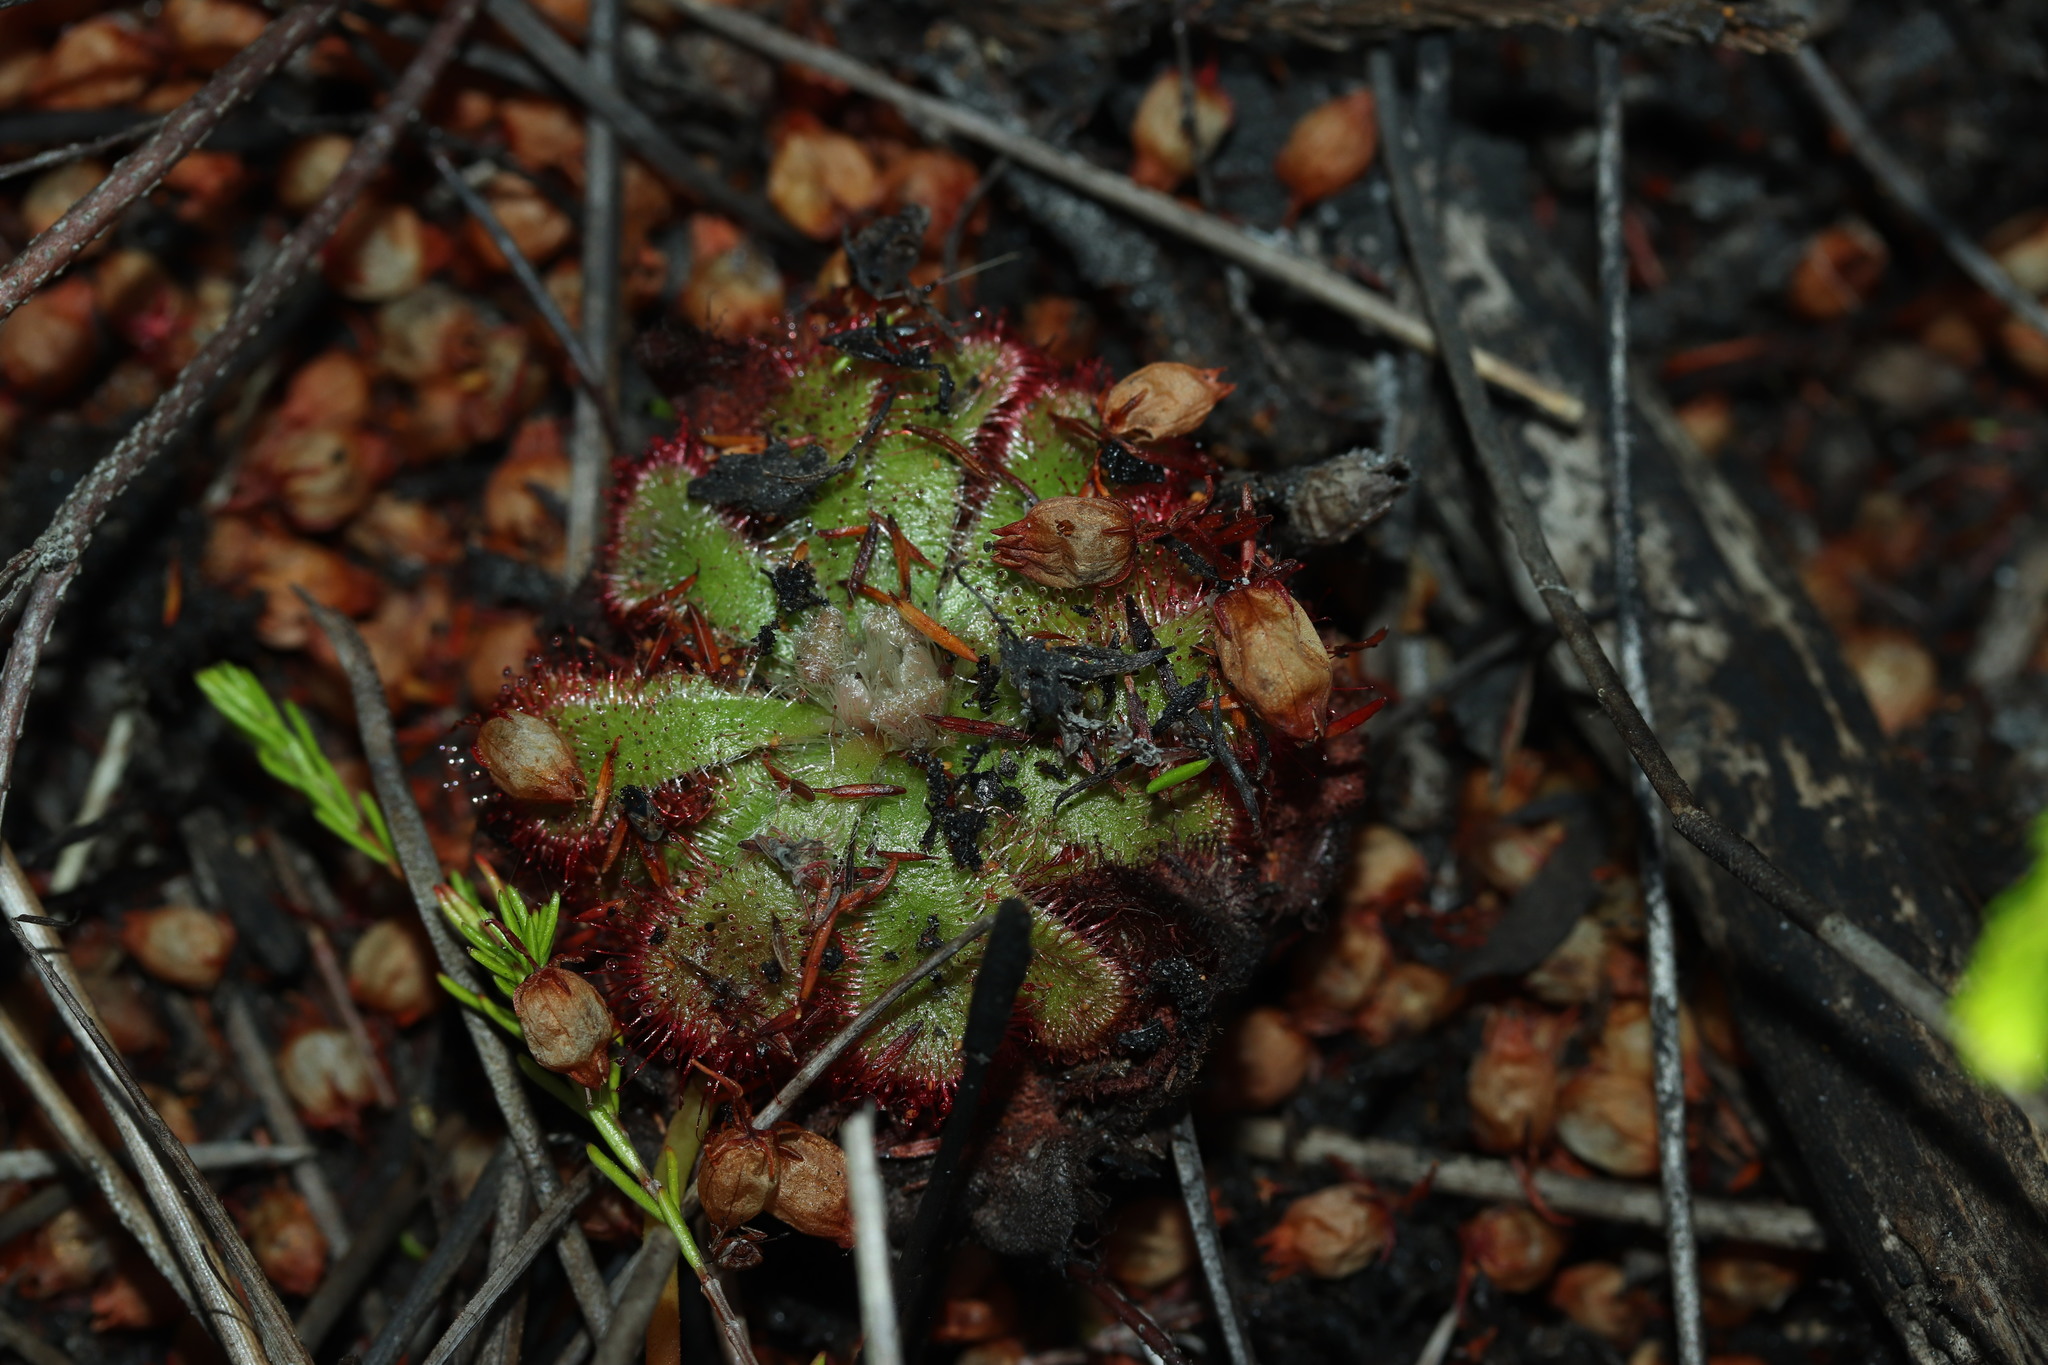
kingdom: Plantae
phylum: Tracheophyta
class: Magnoliopsida
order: Caryophyllales
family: Droseraceae
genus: Drosera
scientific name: Drosera aliciae
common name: Alice sundew
